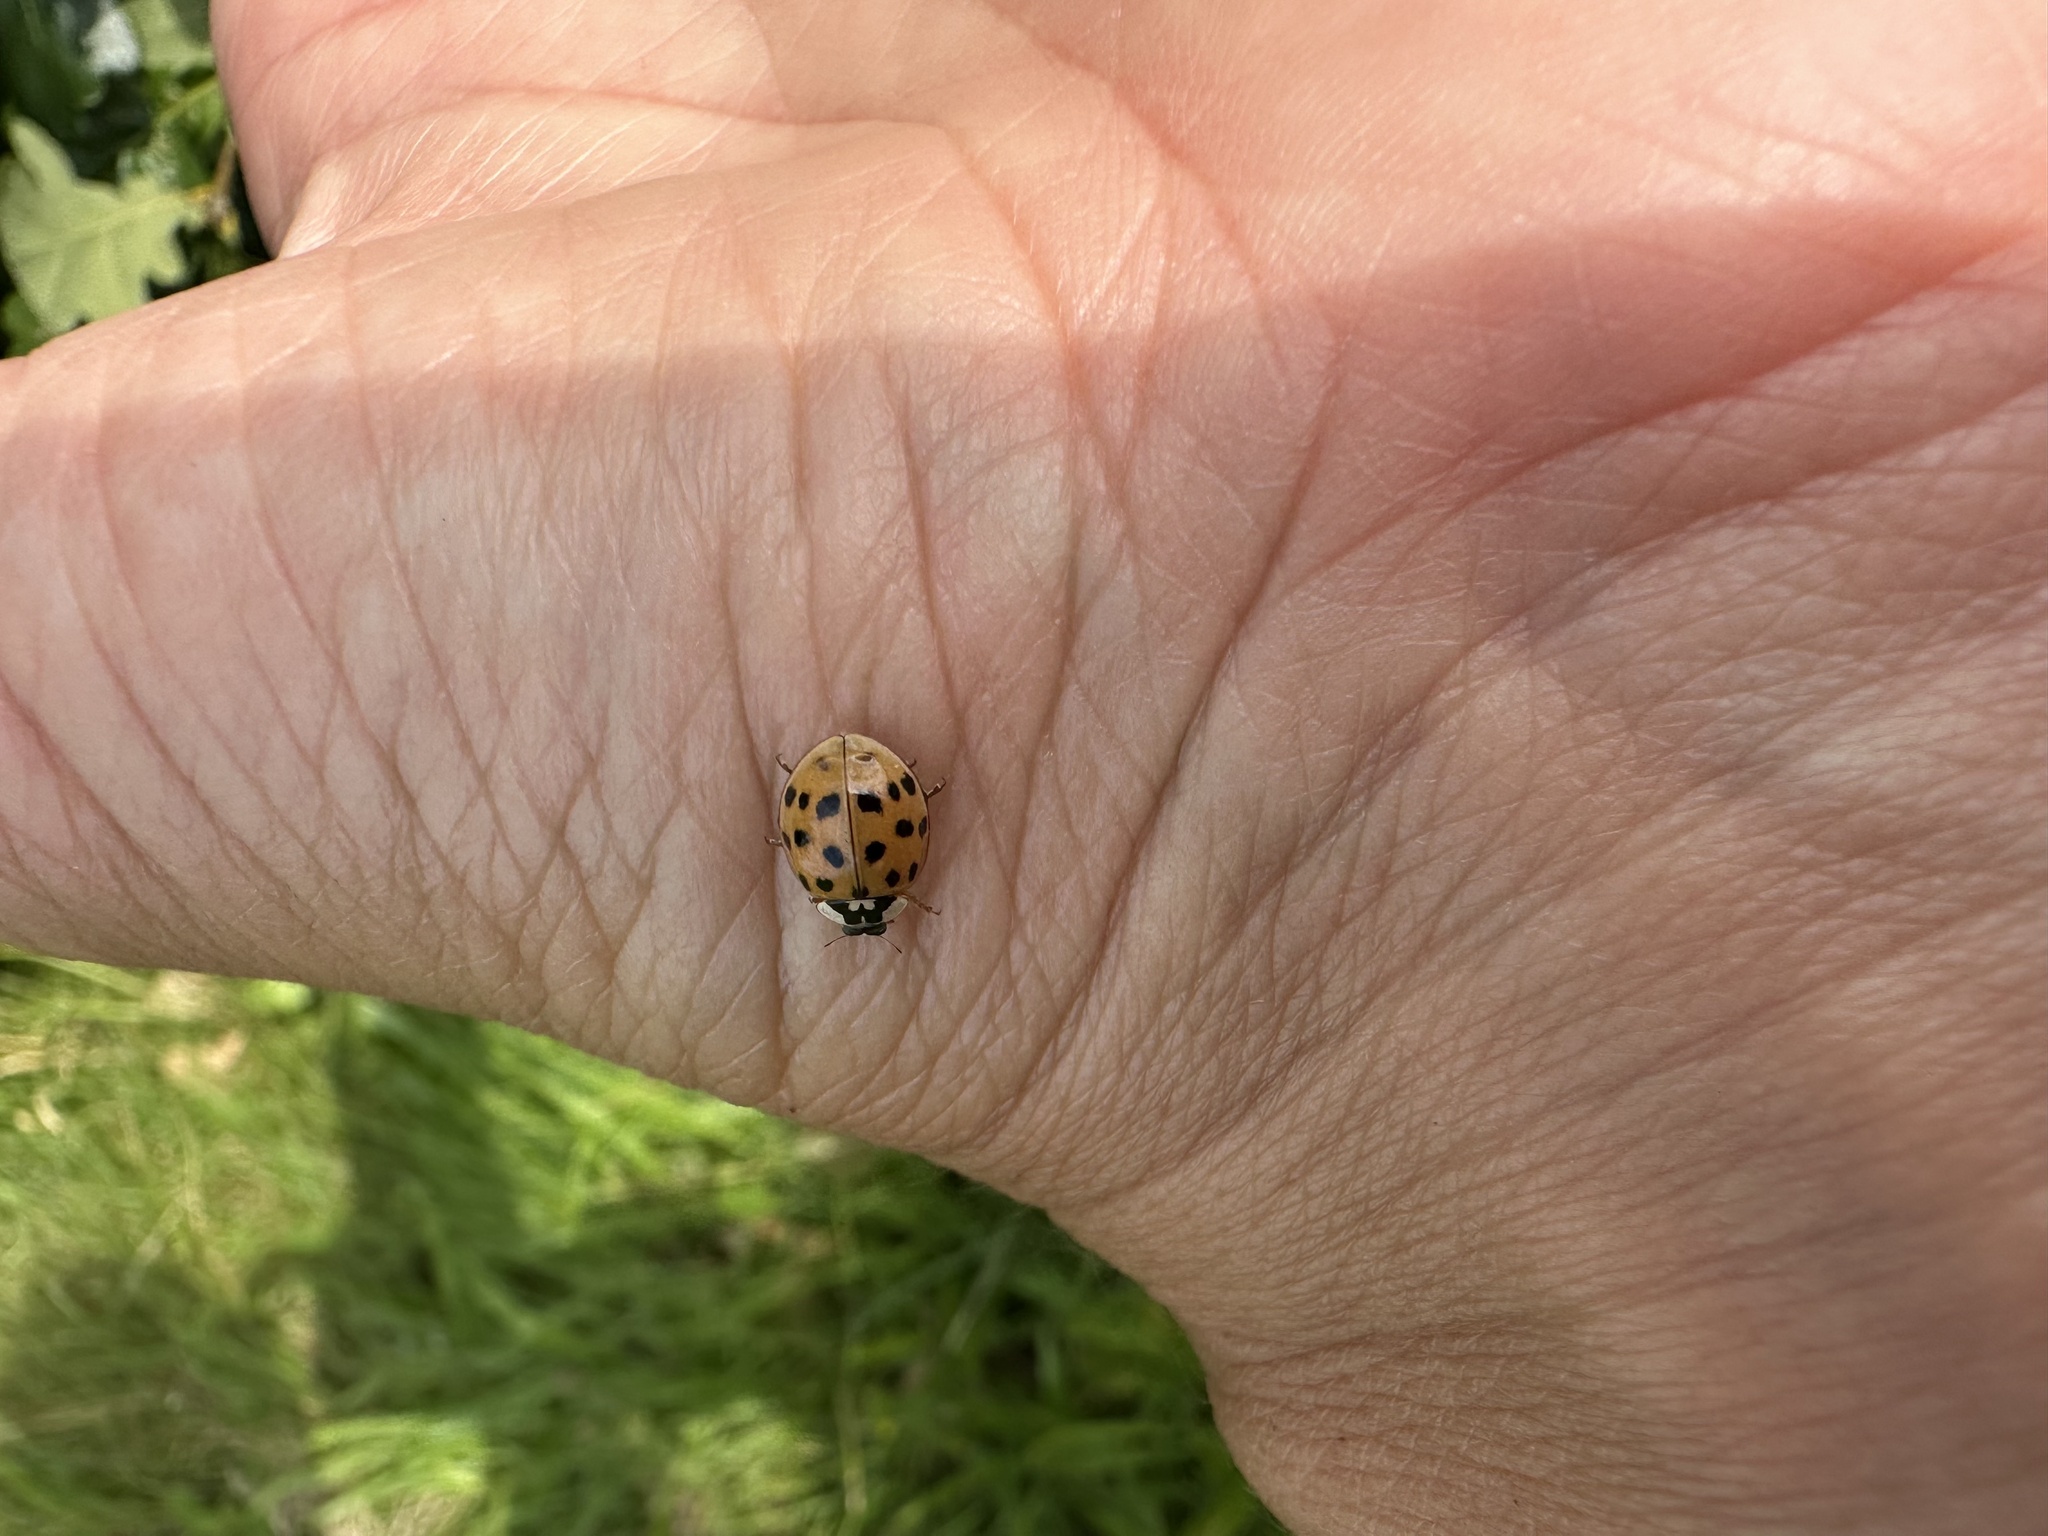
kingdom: Animalia
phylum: Arthropoda
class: Insecta
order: Coleoptera
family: Coccinellidae
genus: Harmonia
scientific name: Harmonia axyridis
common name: Harlequin ladybird
